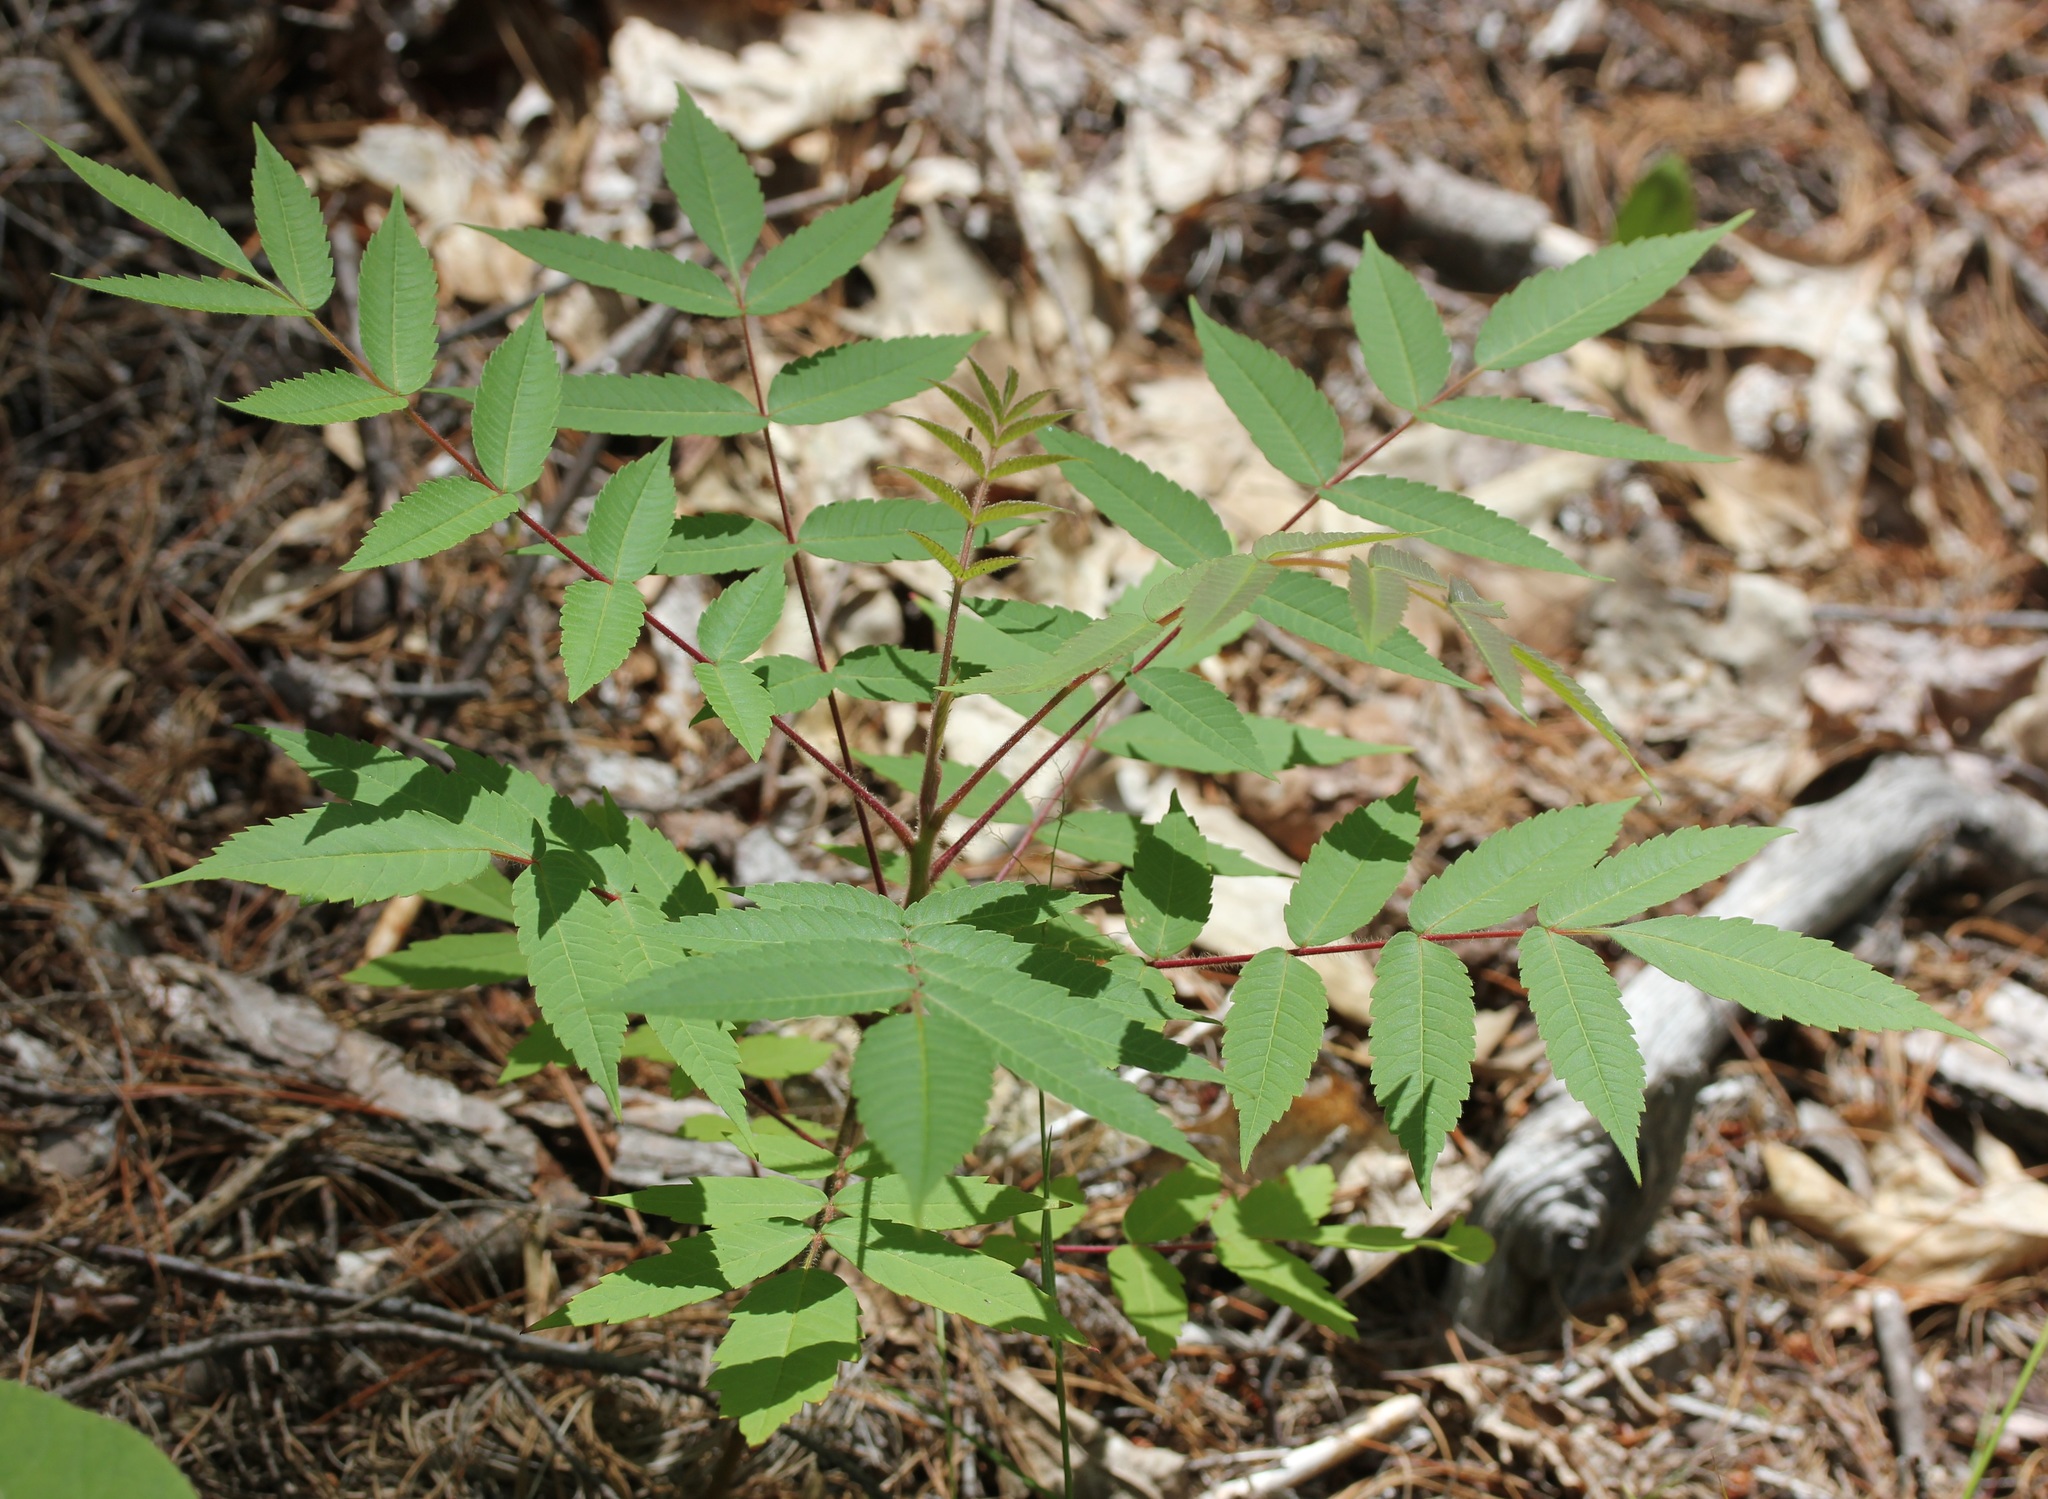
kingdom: Plantae
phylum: Tracheophyta
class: Magnoliopsida
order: Sapindales
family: Anacardiaceae
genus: Rhus
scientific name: Rhus typhina
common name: Staghorn sumac
